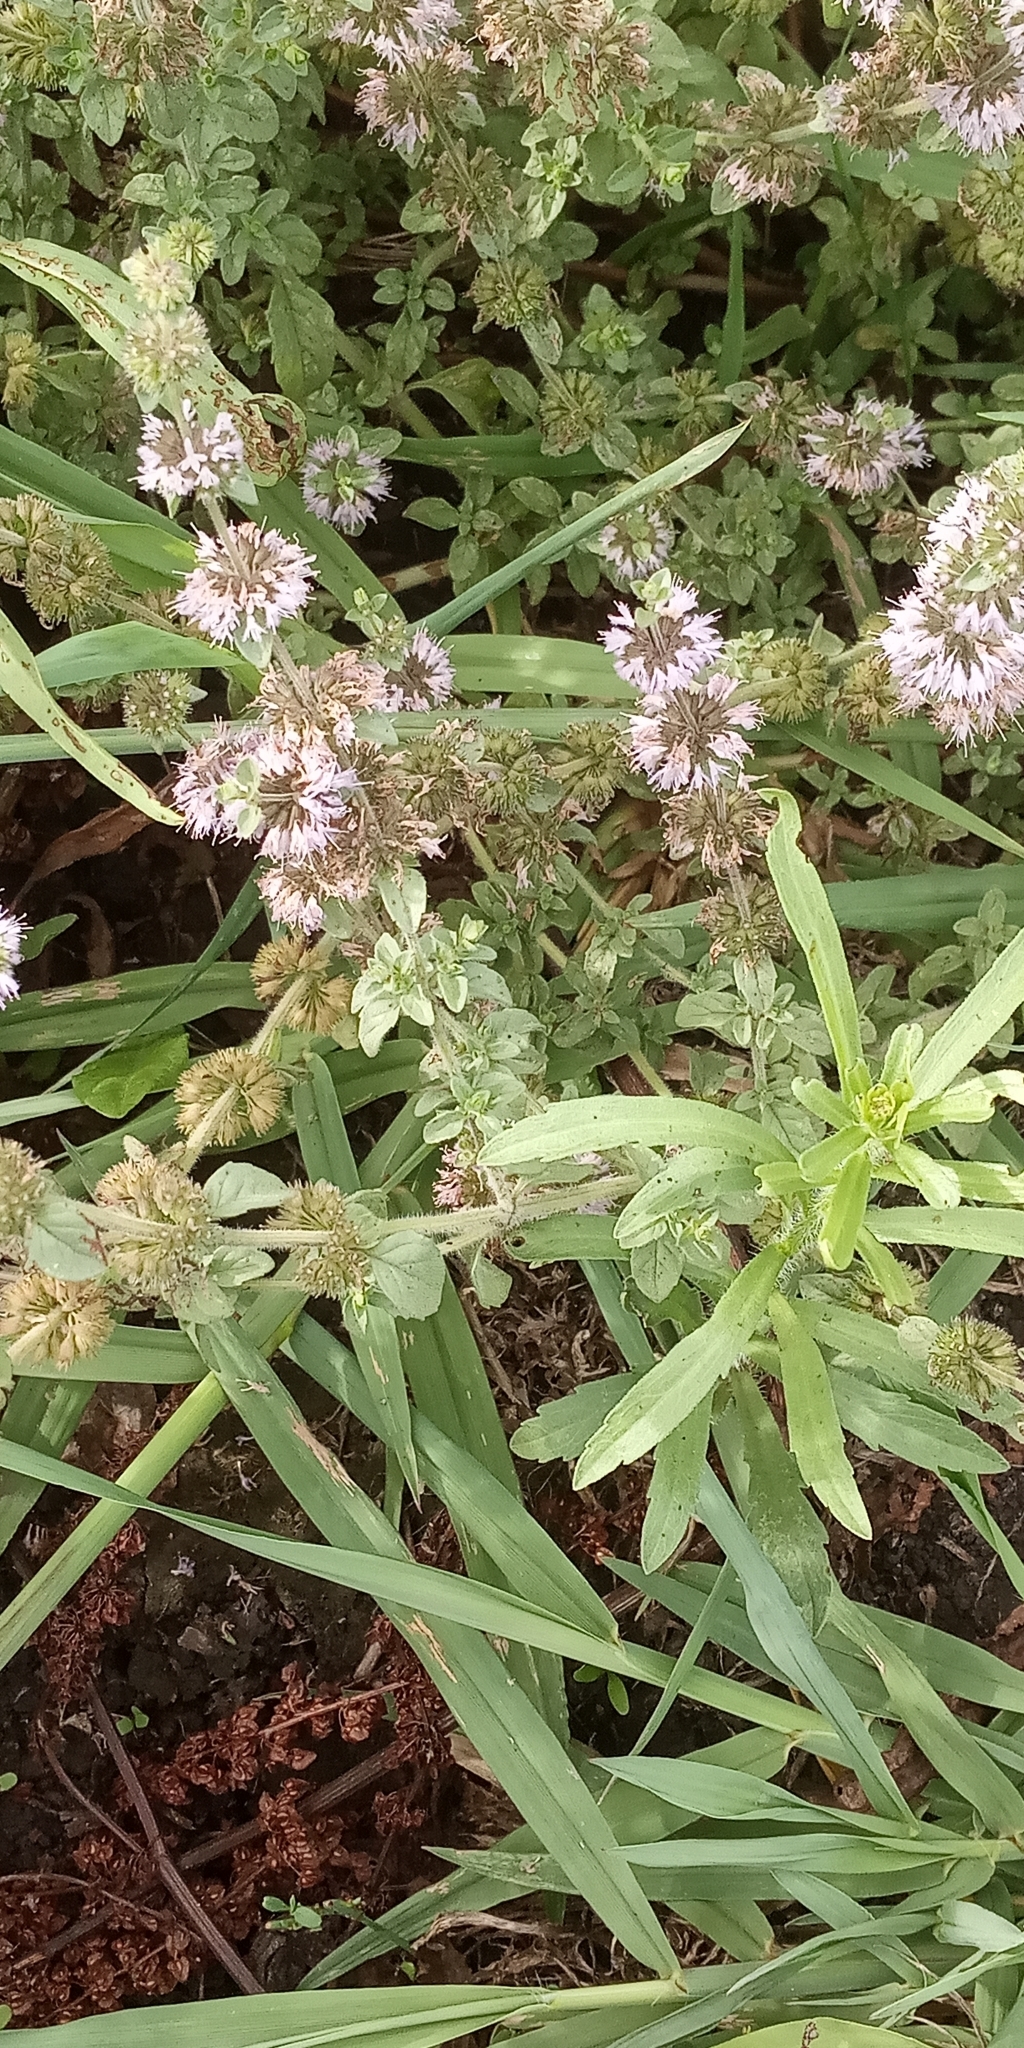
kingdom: Plantae
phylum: Tracheophyta
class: Magnoliopsida
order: Lamiales
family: Lamiaceae
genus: Mentha
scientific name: Mentha pulegium
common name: Pennyroyal
